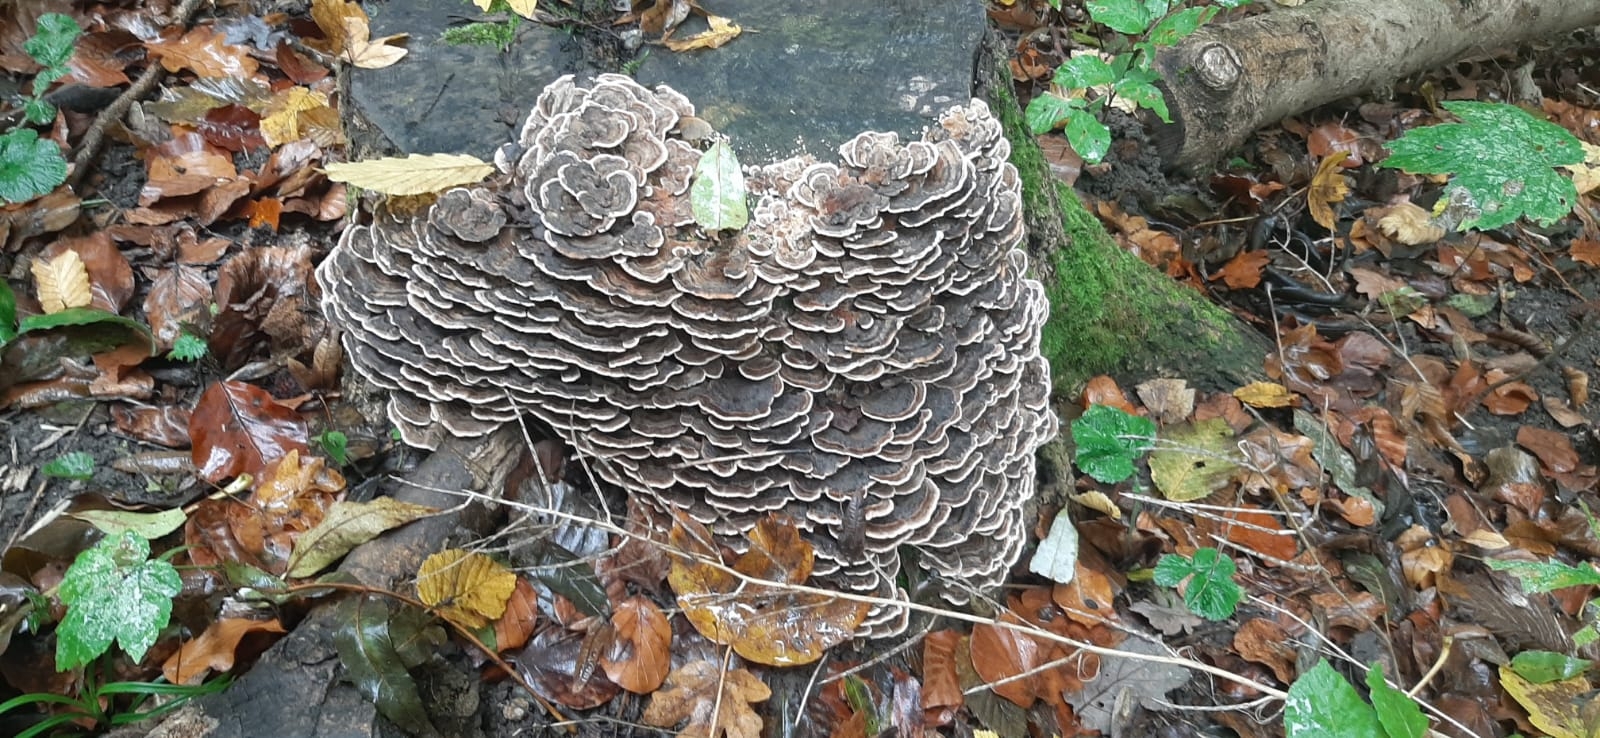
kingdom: Fungi
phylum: Basidiomycota
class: Agaricomycetes
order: Polyporales
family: Polyporaceae
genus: Trametes
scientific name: Trametes versicolor
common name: Turkeytail
